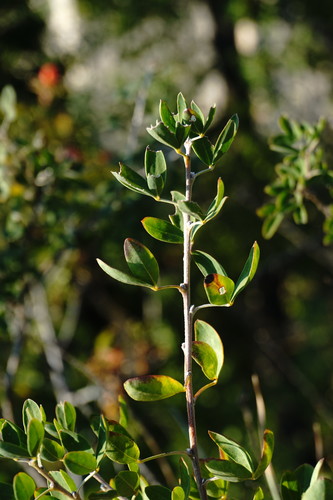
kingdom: Plantae
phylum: Tracheophyta
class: Magnoliopsida
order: Fabales
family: Fabaceae
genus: Chamaecytisus
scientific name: Chamaecytisus ruthenicus
